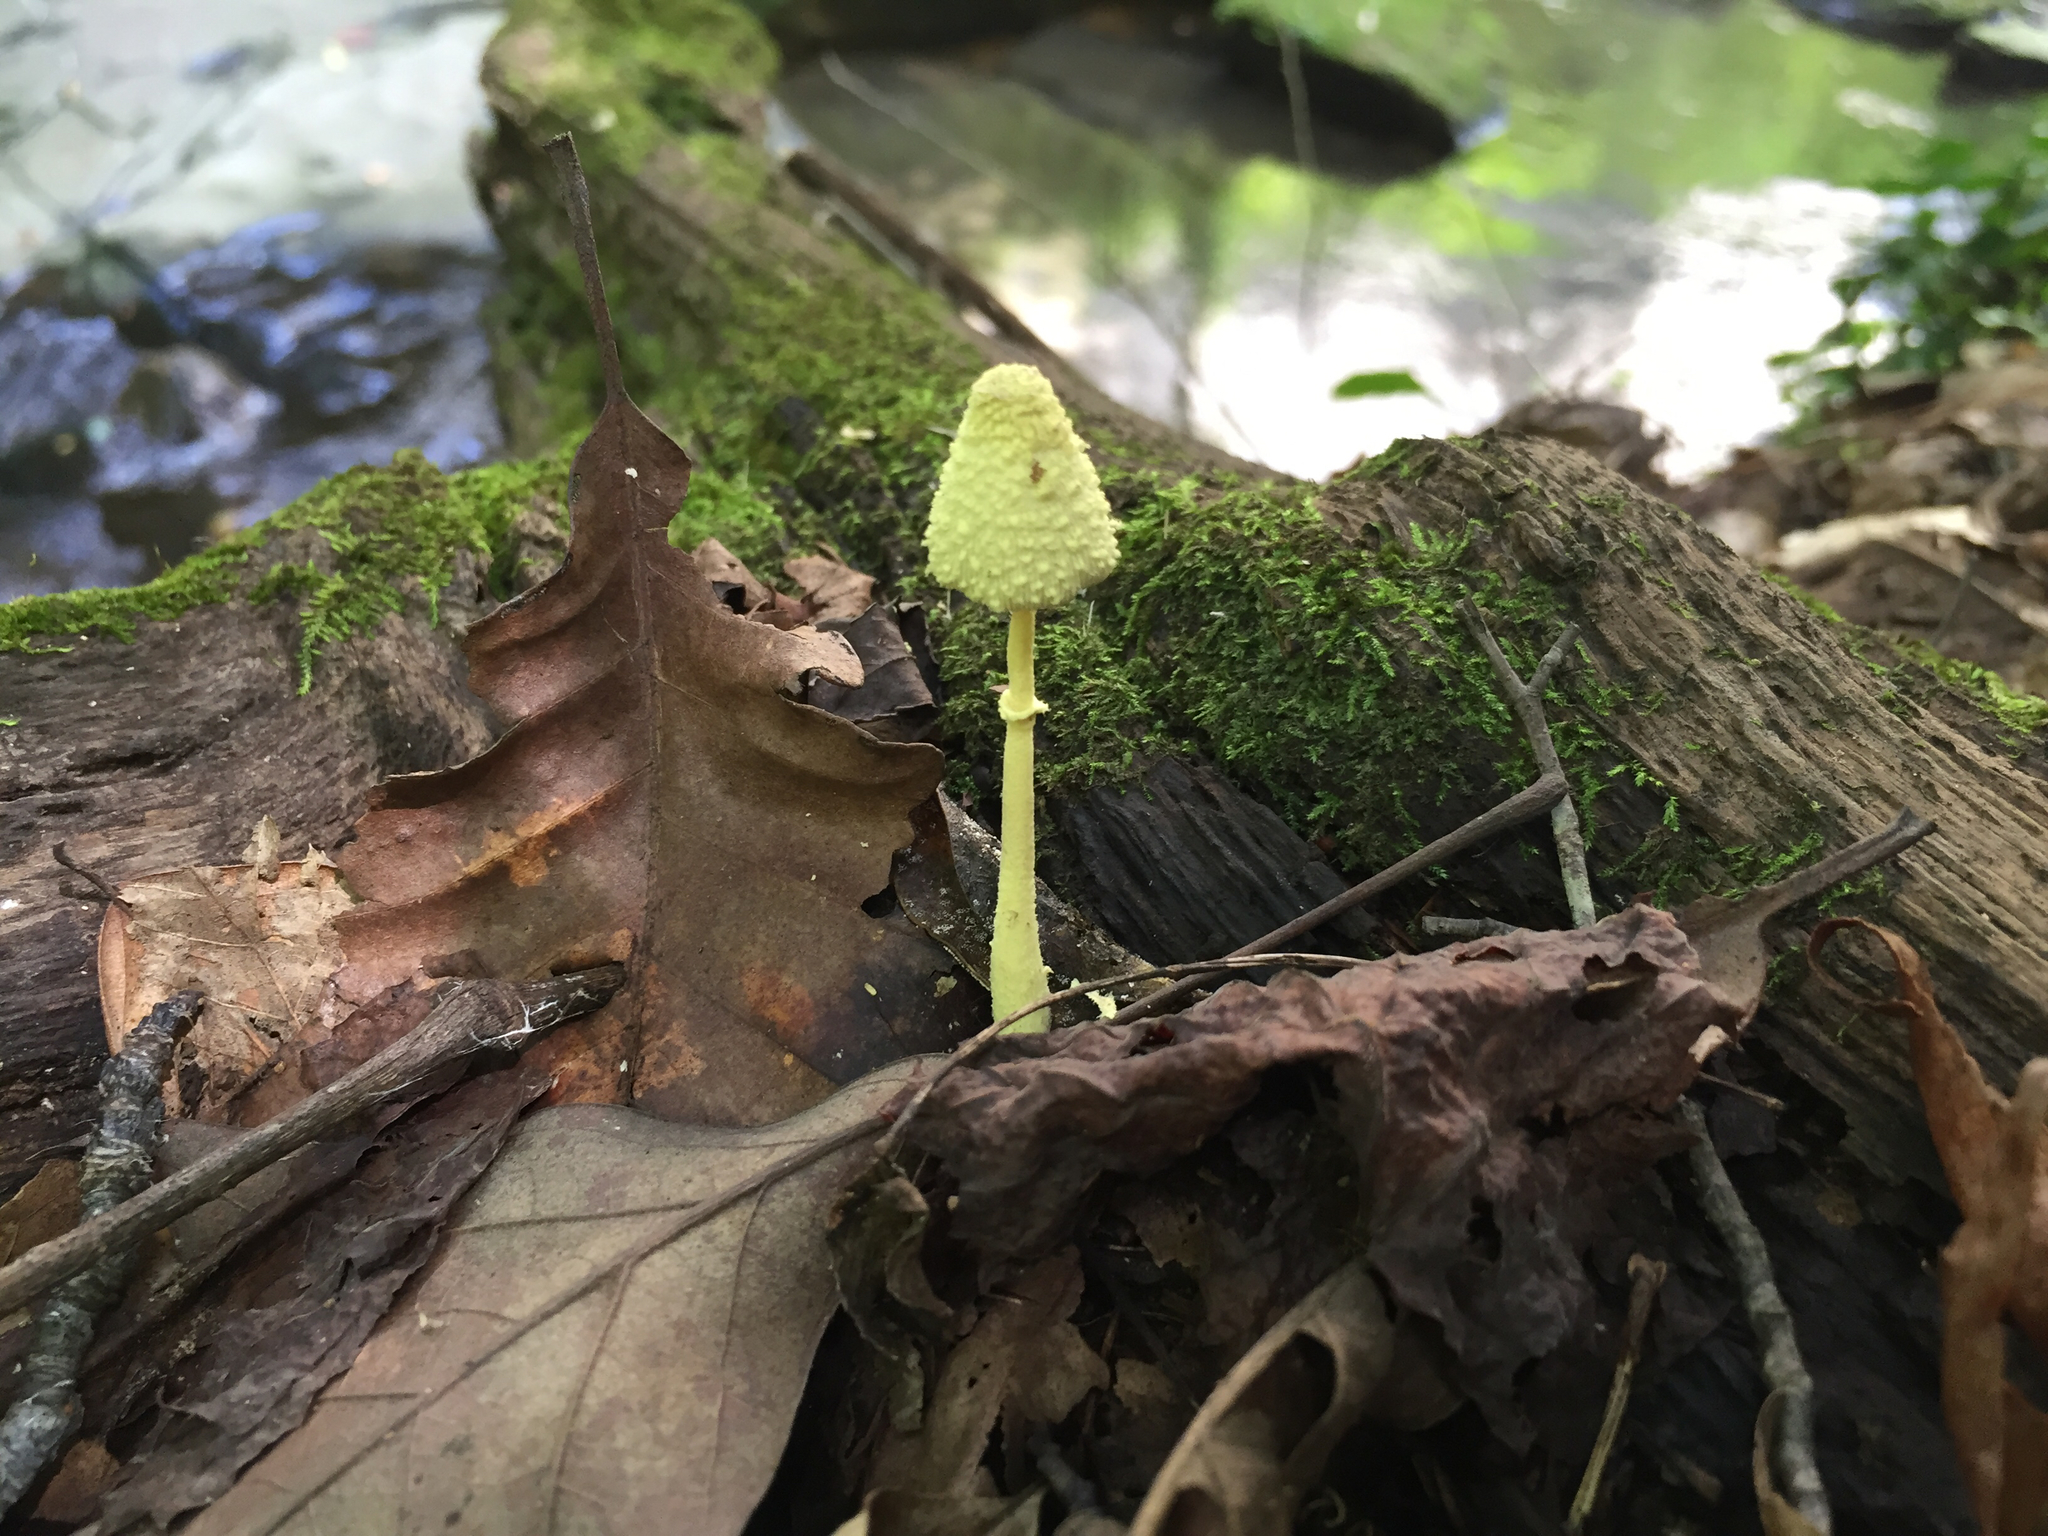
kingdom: Fungi
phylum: Basidiomycota
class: Agaricomycetes
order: Agaricales
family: Agaricaceae
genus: Leucocoprinus
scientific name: Leucocoprinus birnbaumii
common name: Plantpot dapperling
